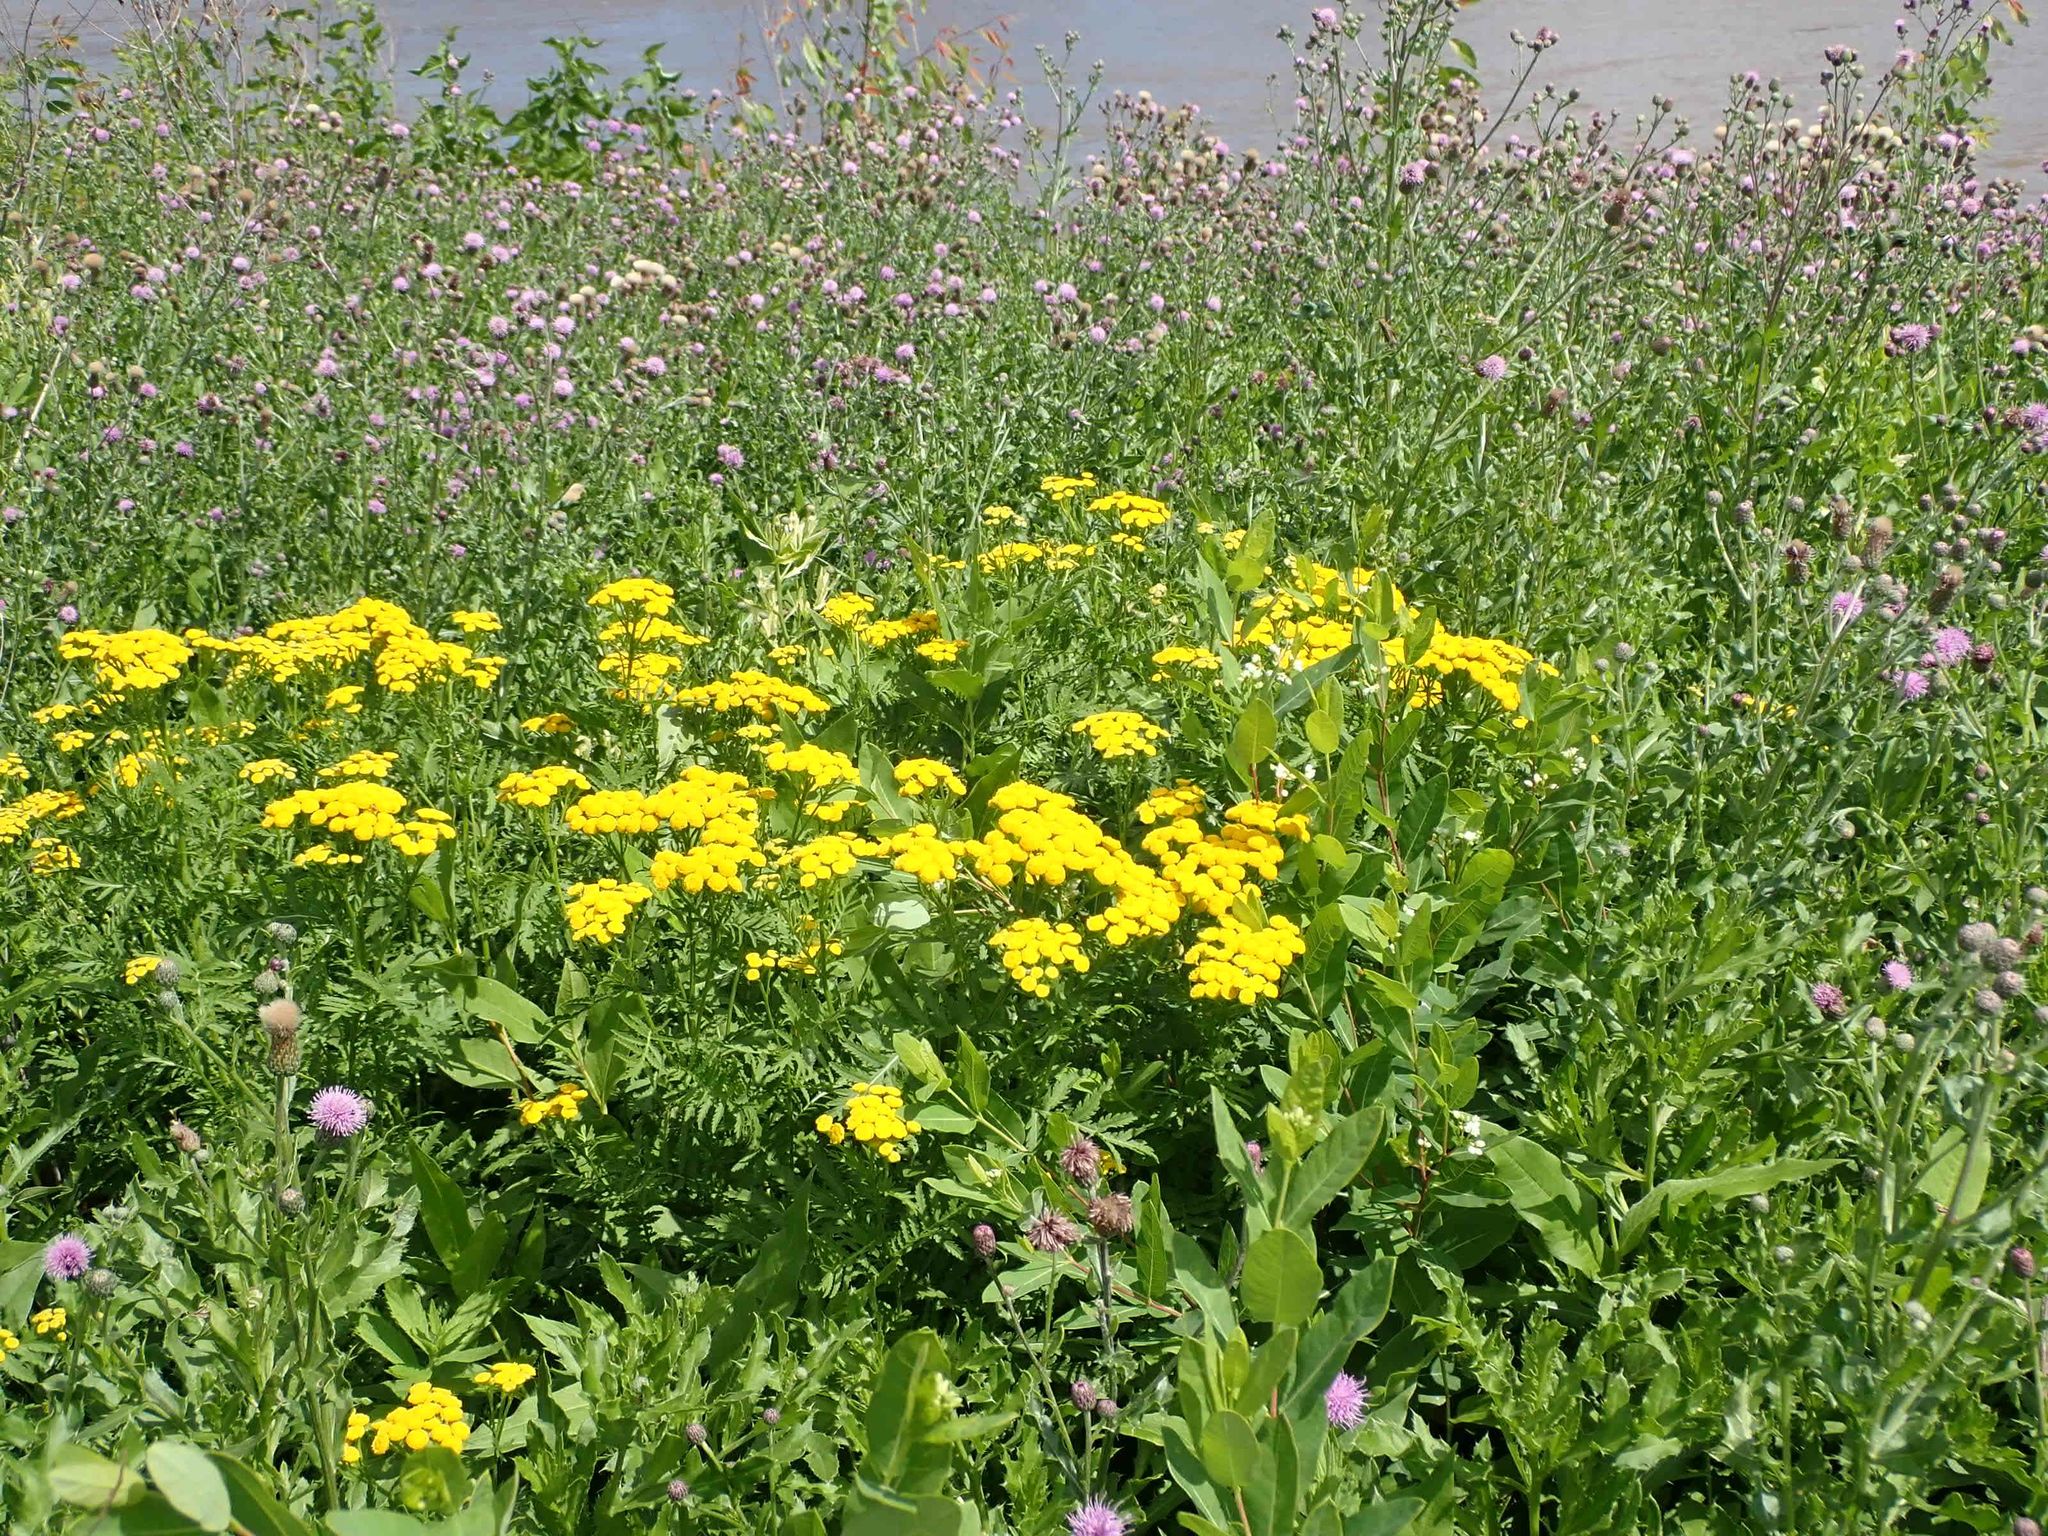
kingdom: Plantae
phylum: Tracheophyta
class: Magnoliopsida
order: Asterales
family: Asteraceae
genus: Tanacetum
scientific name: Tanacetum vulgare
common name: Common tansy
